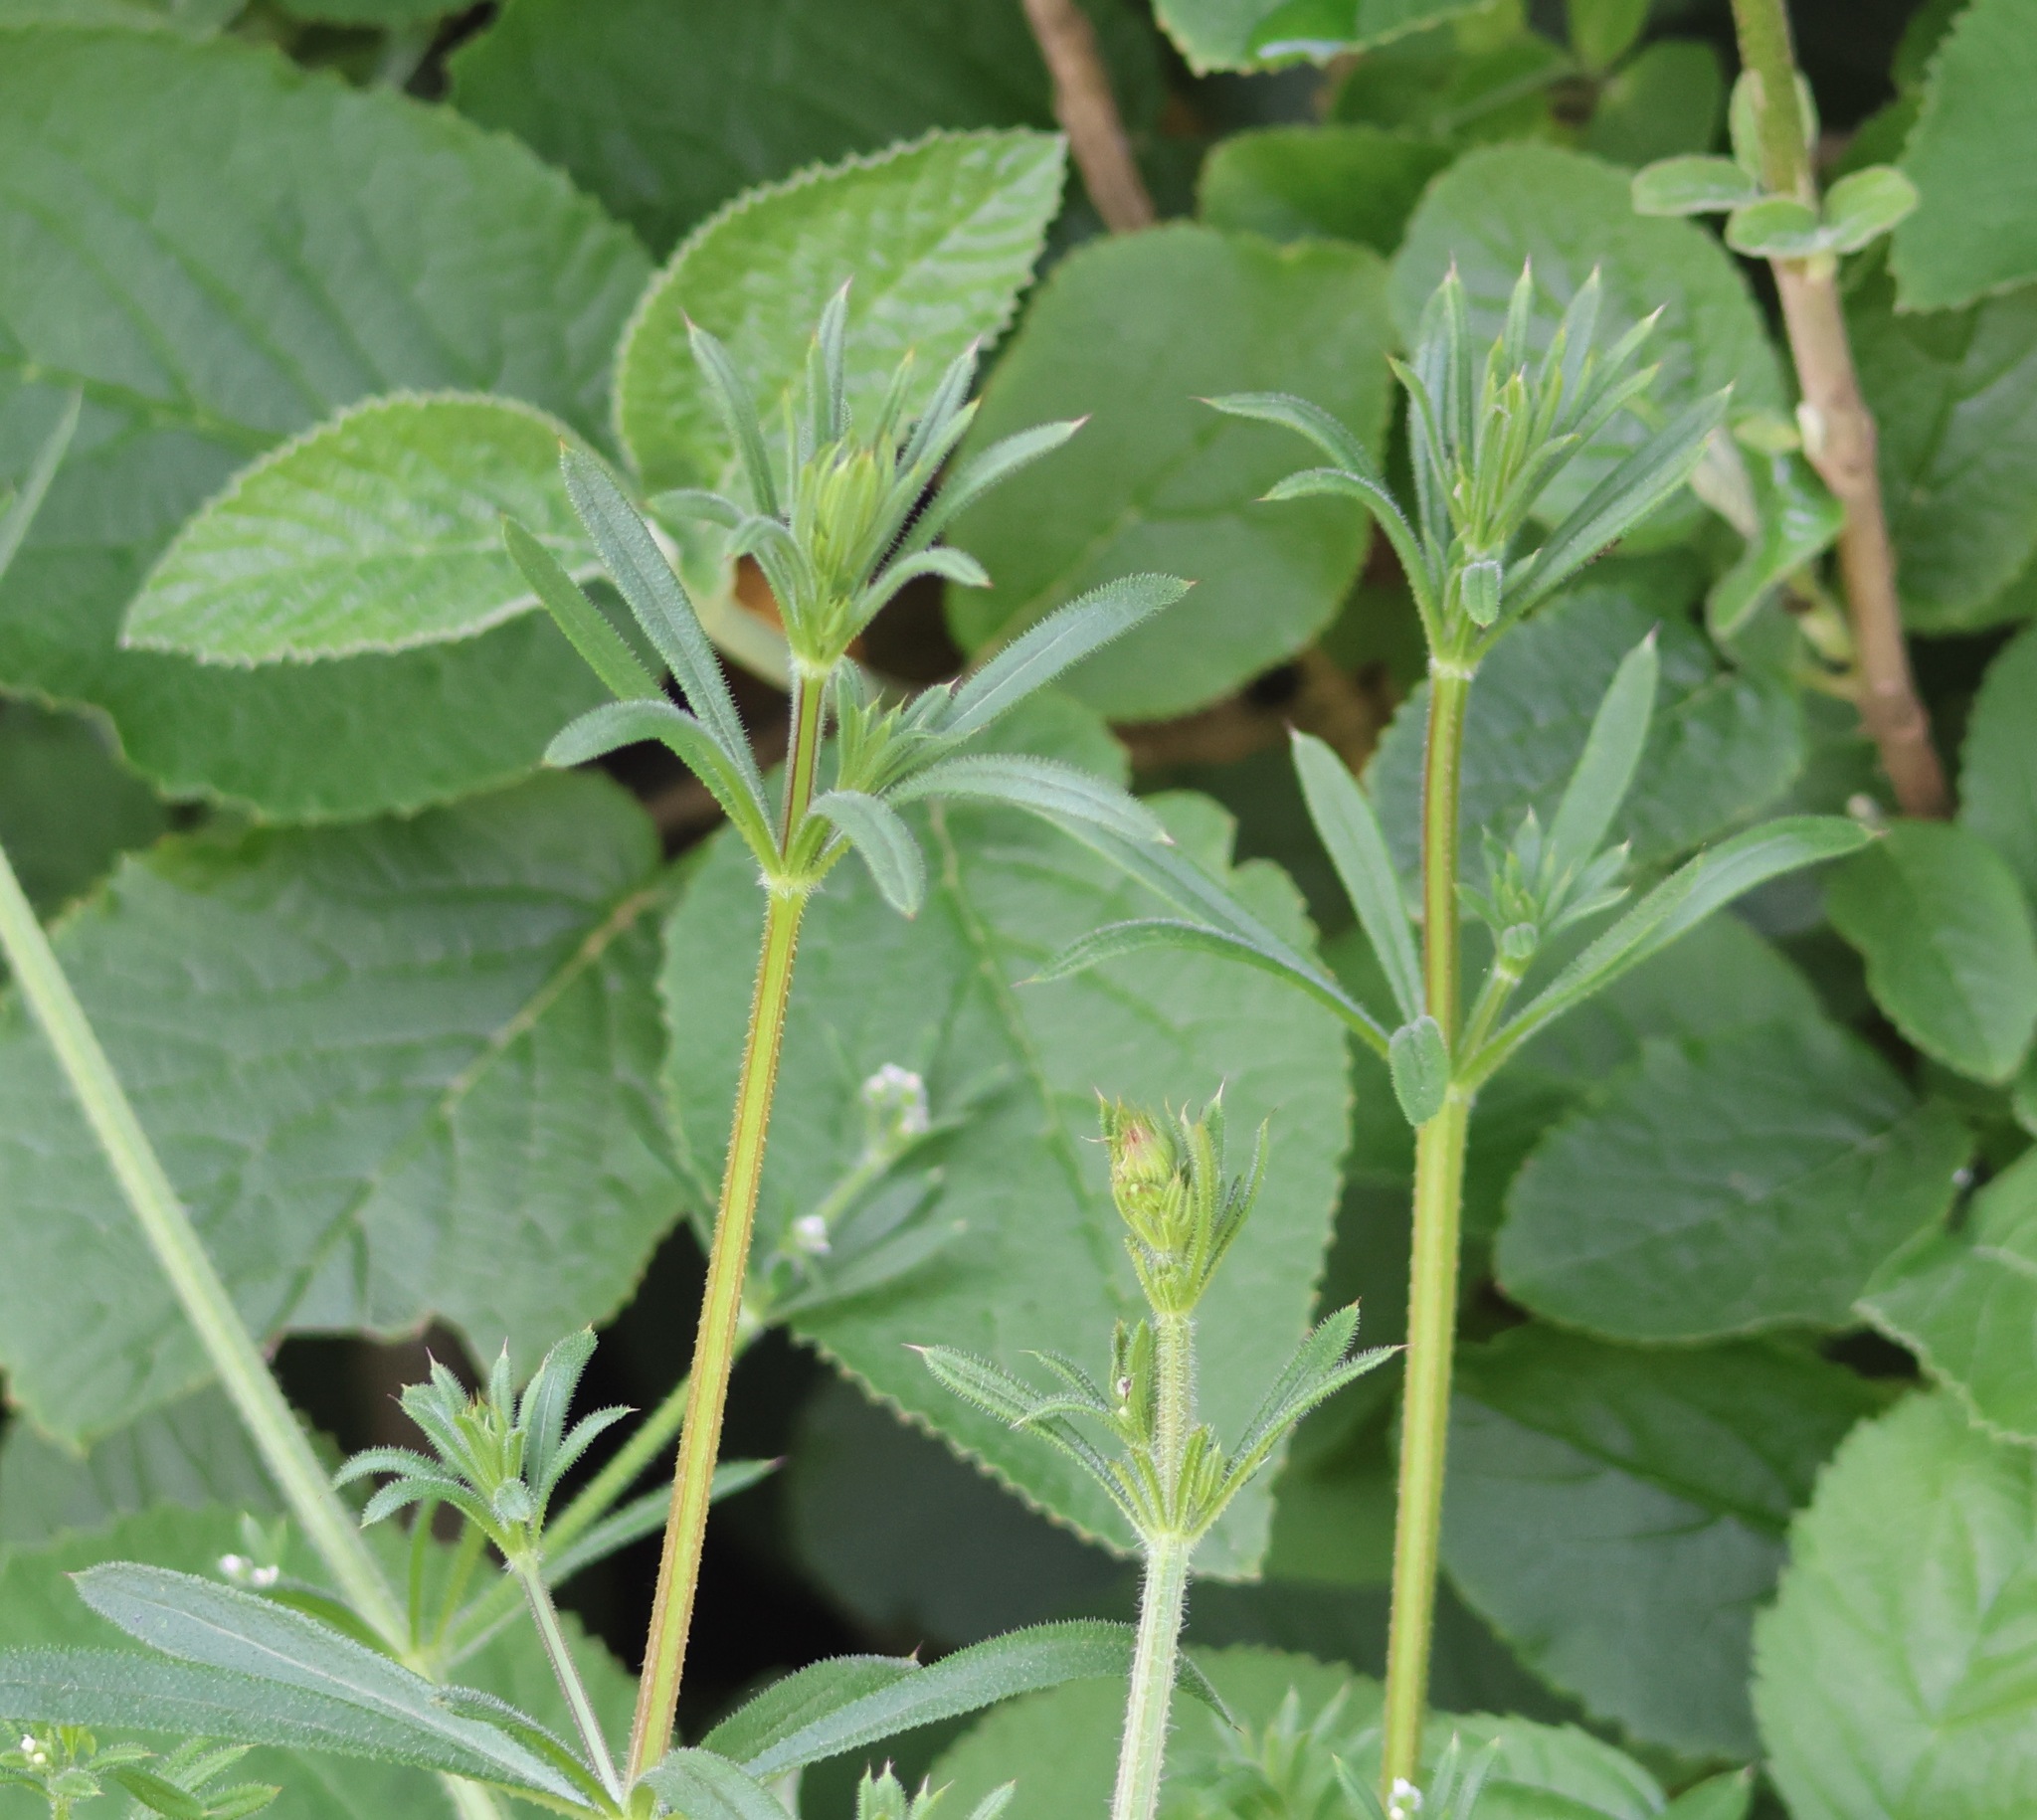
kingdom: Plantae
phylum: Tracheophyta
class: Magnoliopsida
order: Gentianales
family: Rubiaceae
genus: Galium
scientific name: Galium aparine
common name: Cleavers
